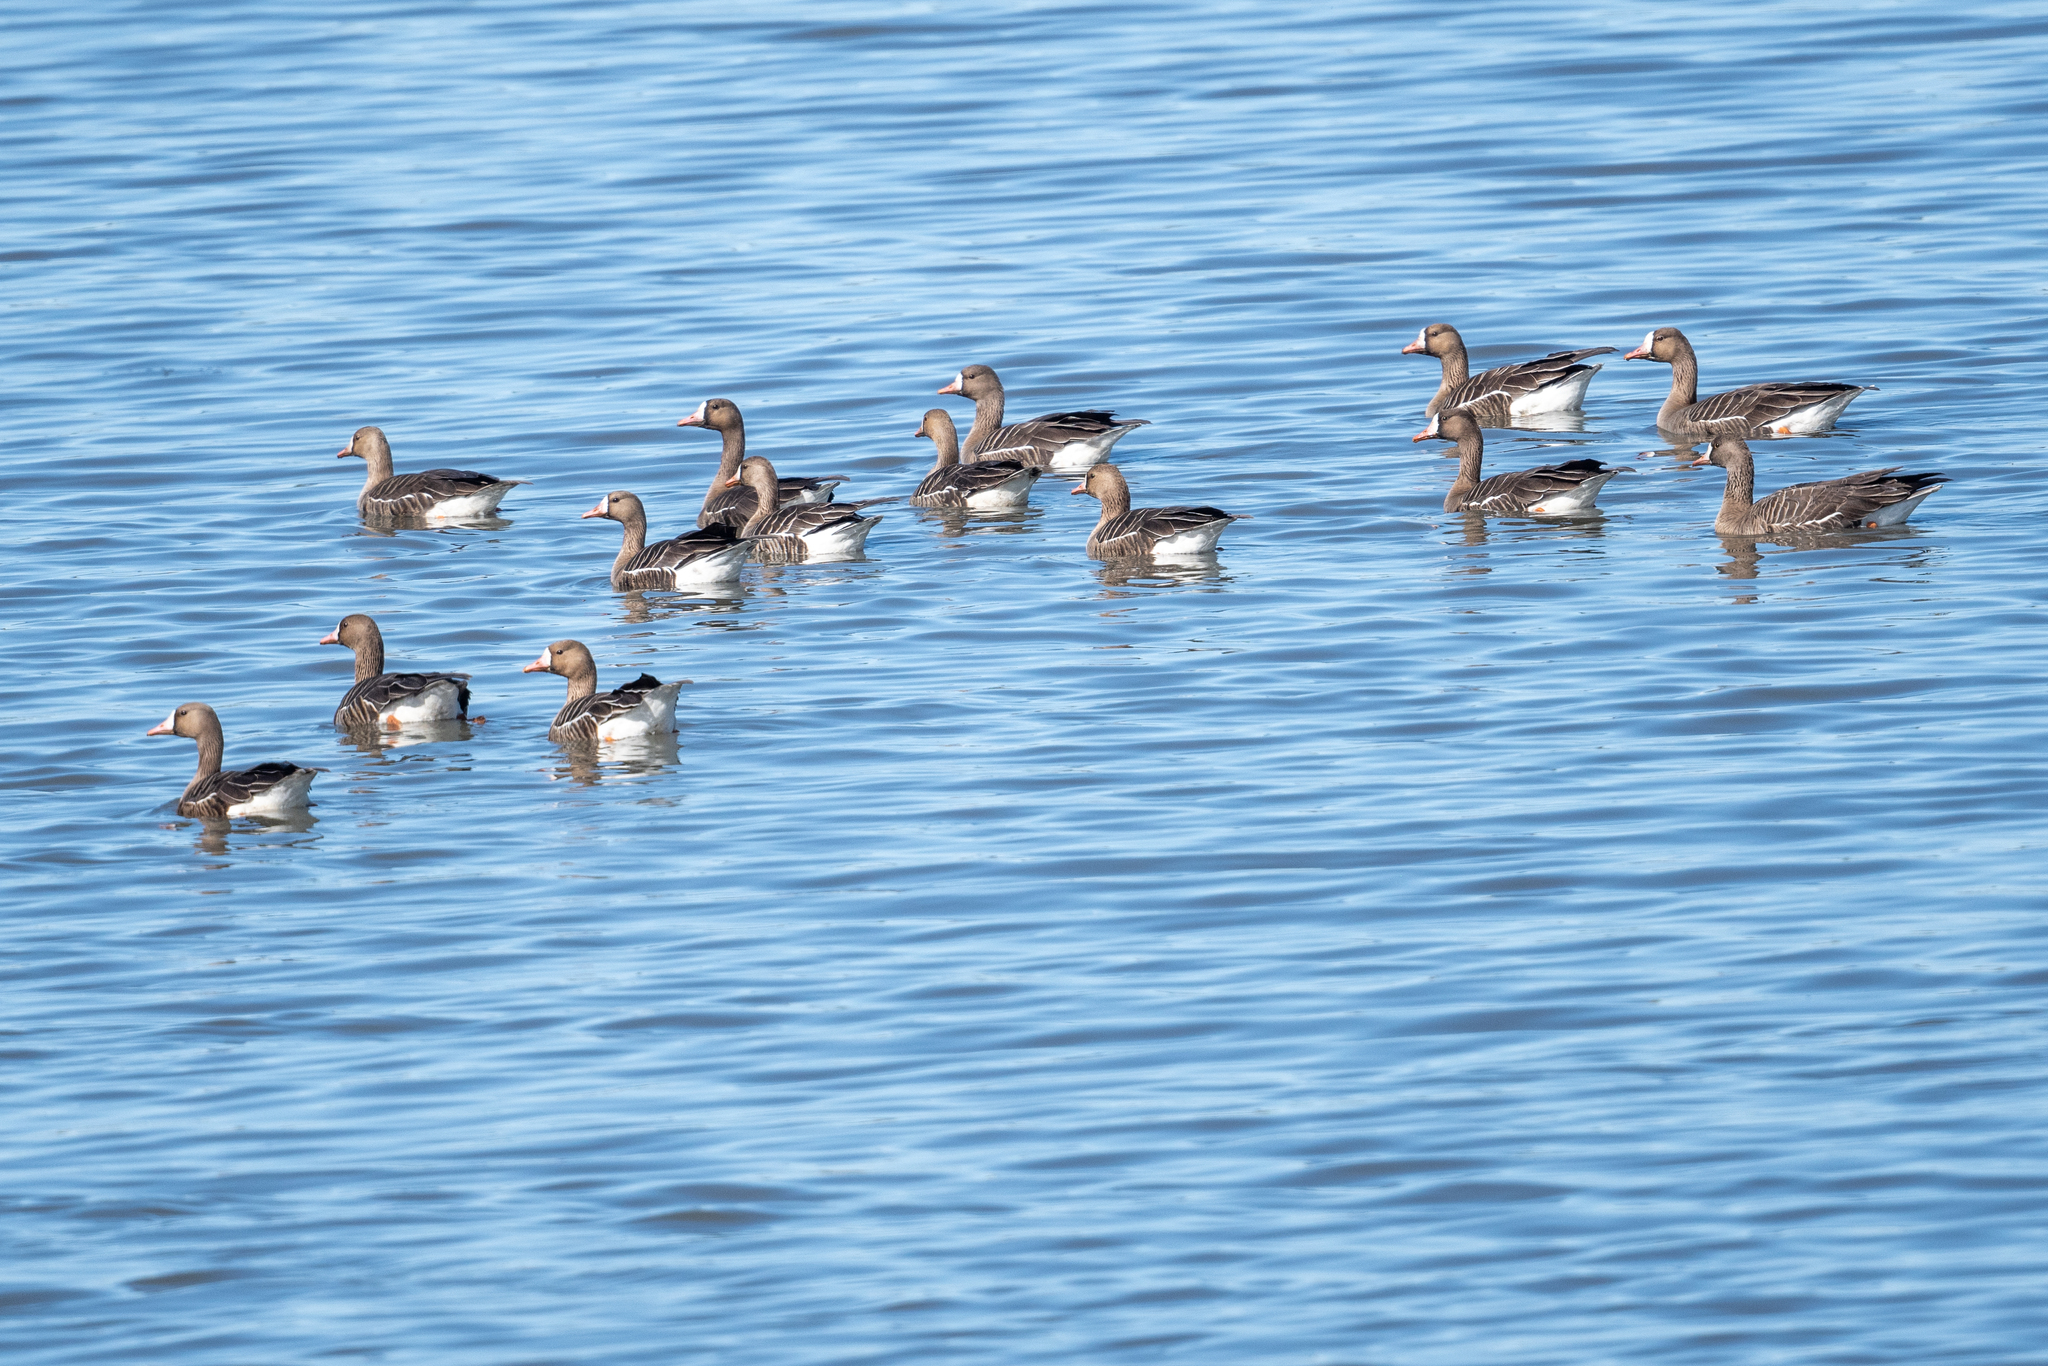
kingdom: Animalia
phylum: Chordata
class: Aves
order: Anseriformes
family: Anatidae
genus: Anser
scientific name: Anser albifrons
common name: Greater white-fronted goose
